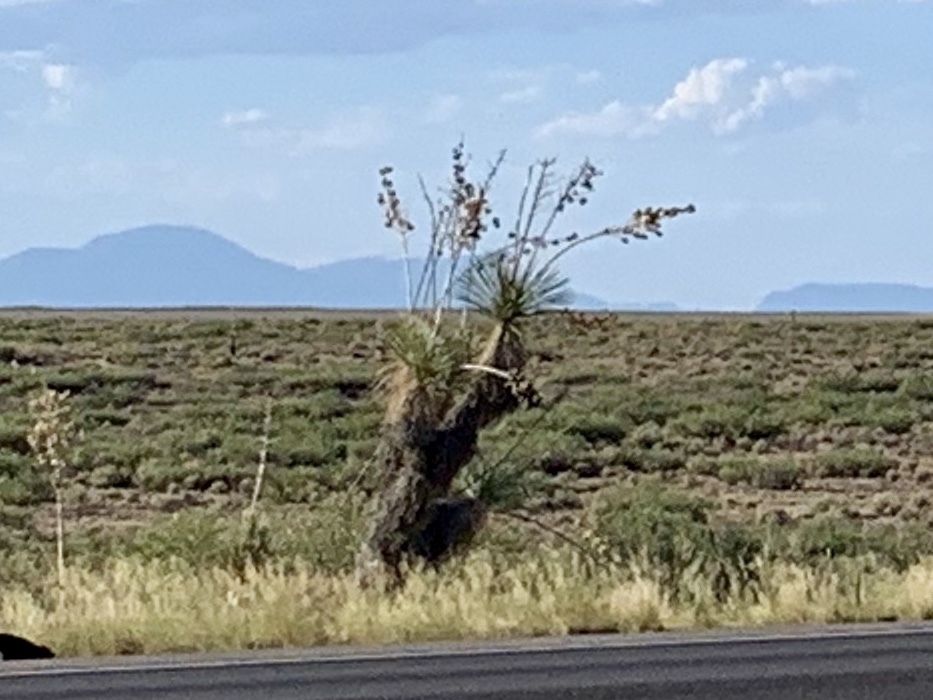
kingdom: Plantae
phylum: Tracheophyta
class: Liliopsida
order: Asparagales
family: Asparagaceae
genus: Yucca
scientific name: Yucca elata
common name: Palmella
